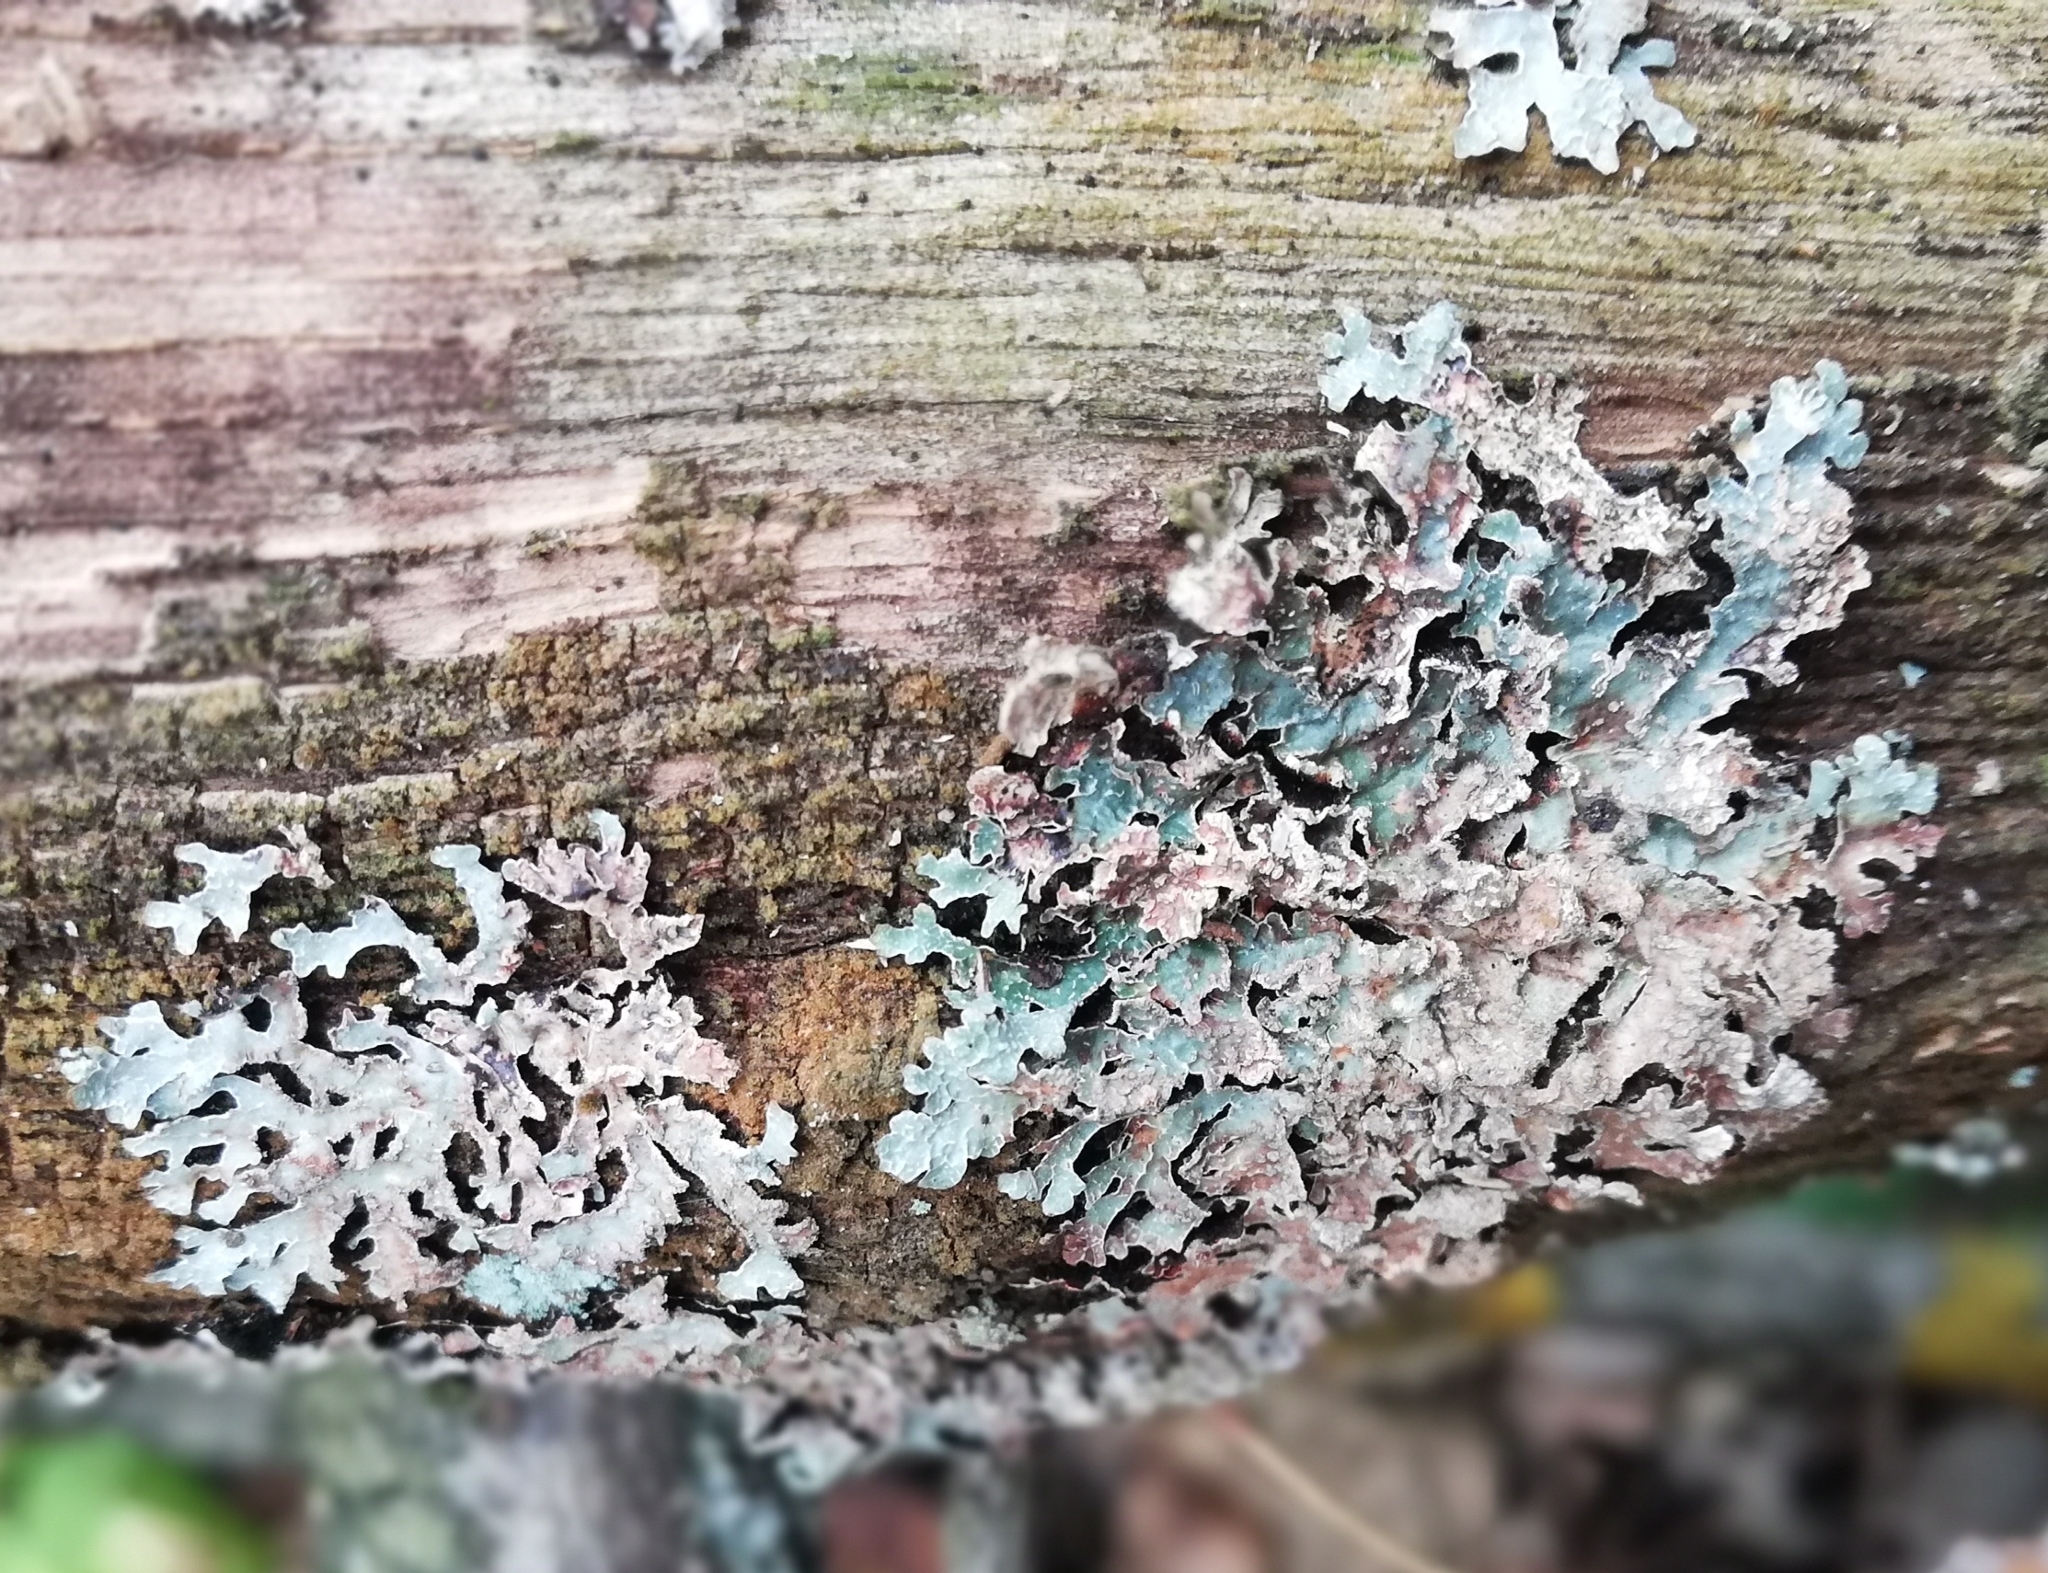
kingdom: Fungi
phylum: Ascomycota
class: Lecanoromycetes
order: Lecanorales
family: Parmeliaceae
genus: Parmelia
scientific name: Parmelia sulcata
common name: Netted shield lichen
